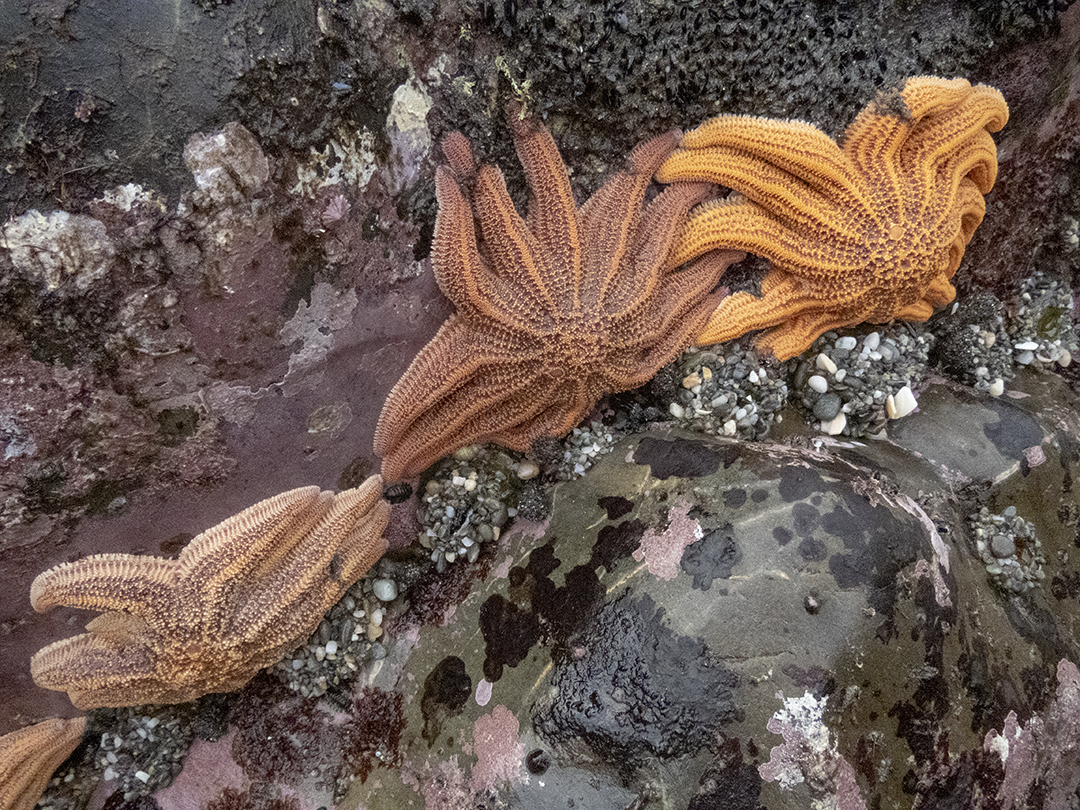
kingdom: Animalia
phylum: Echinodermata
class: Asteroidea
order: Forcipulatida
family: Stichasteridae
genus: Stichaster
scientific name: Stichaster australis
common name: Reef starfish
